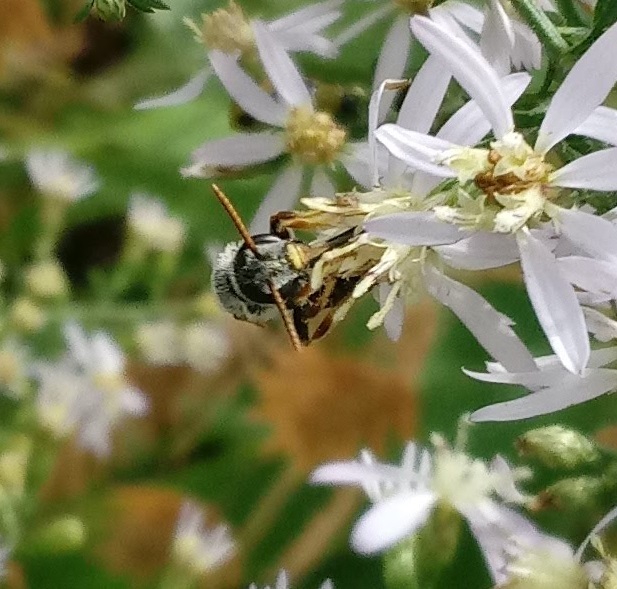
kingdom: Animalia
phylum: Arthropoda
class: Insecta
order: Hymenoptera
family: Halictidae
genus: Halictus
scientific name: Halictus ligatus
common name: Ligated furrow bee
